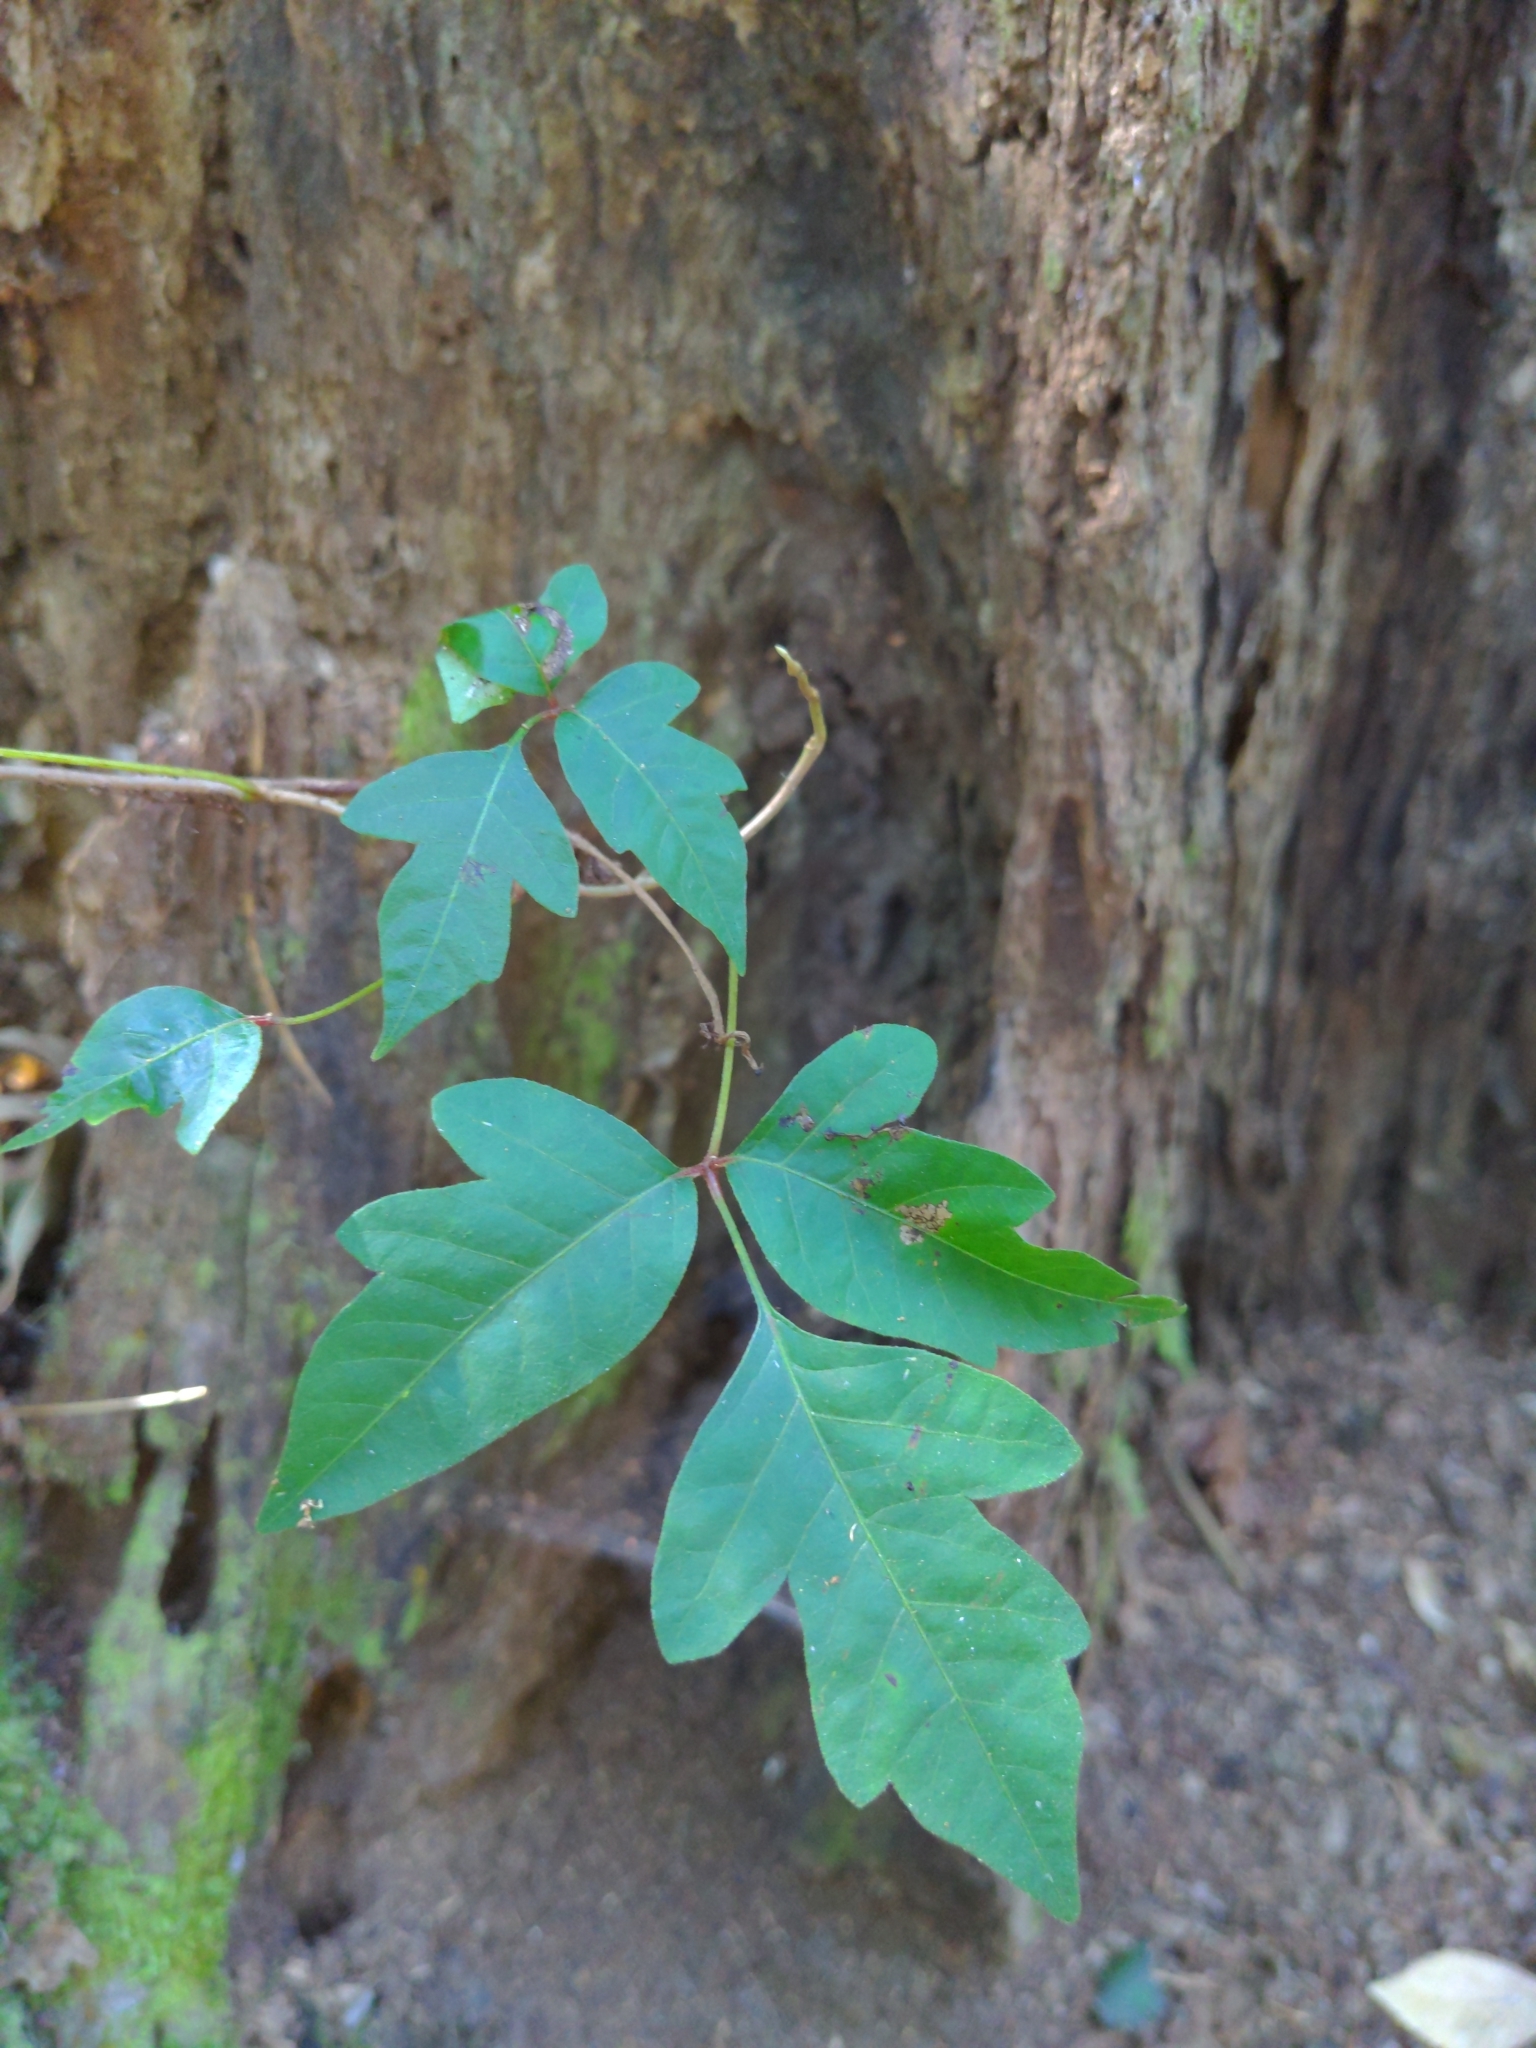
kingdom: Plantae
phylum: Tracheophyta
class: Magnoliopsida
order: Sapindales
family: Anacardiaceae
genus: Toxicodendron
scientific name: Toxicodendron radicans
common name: Poison ivy
